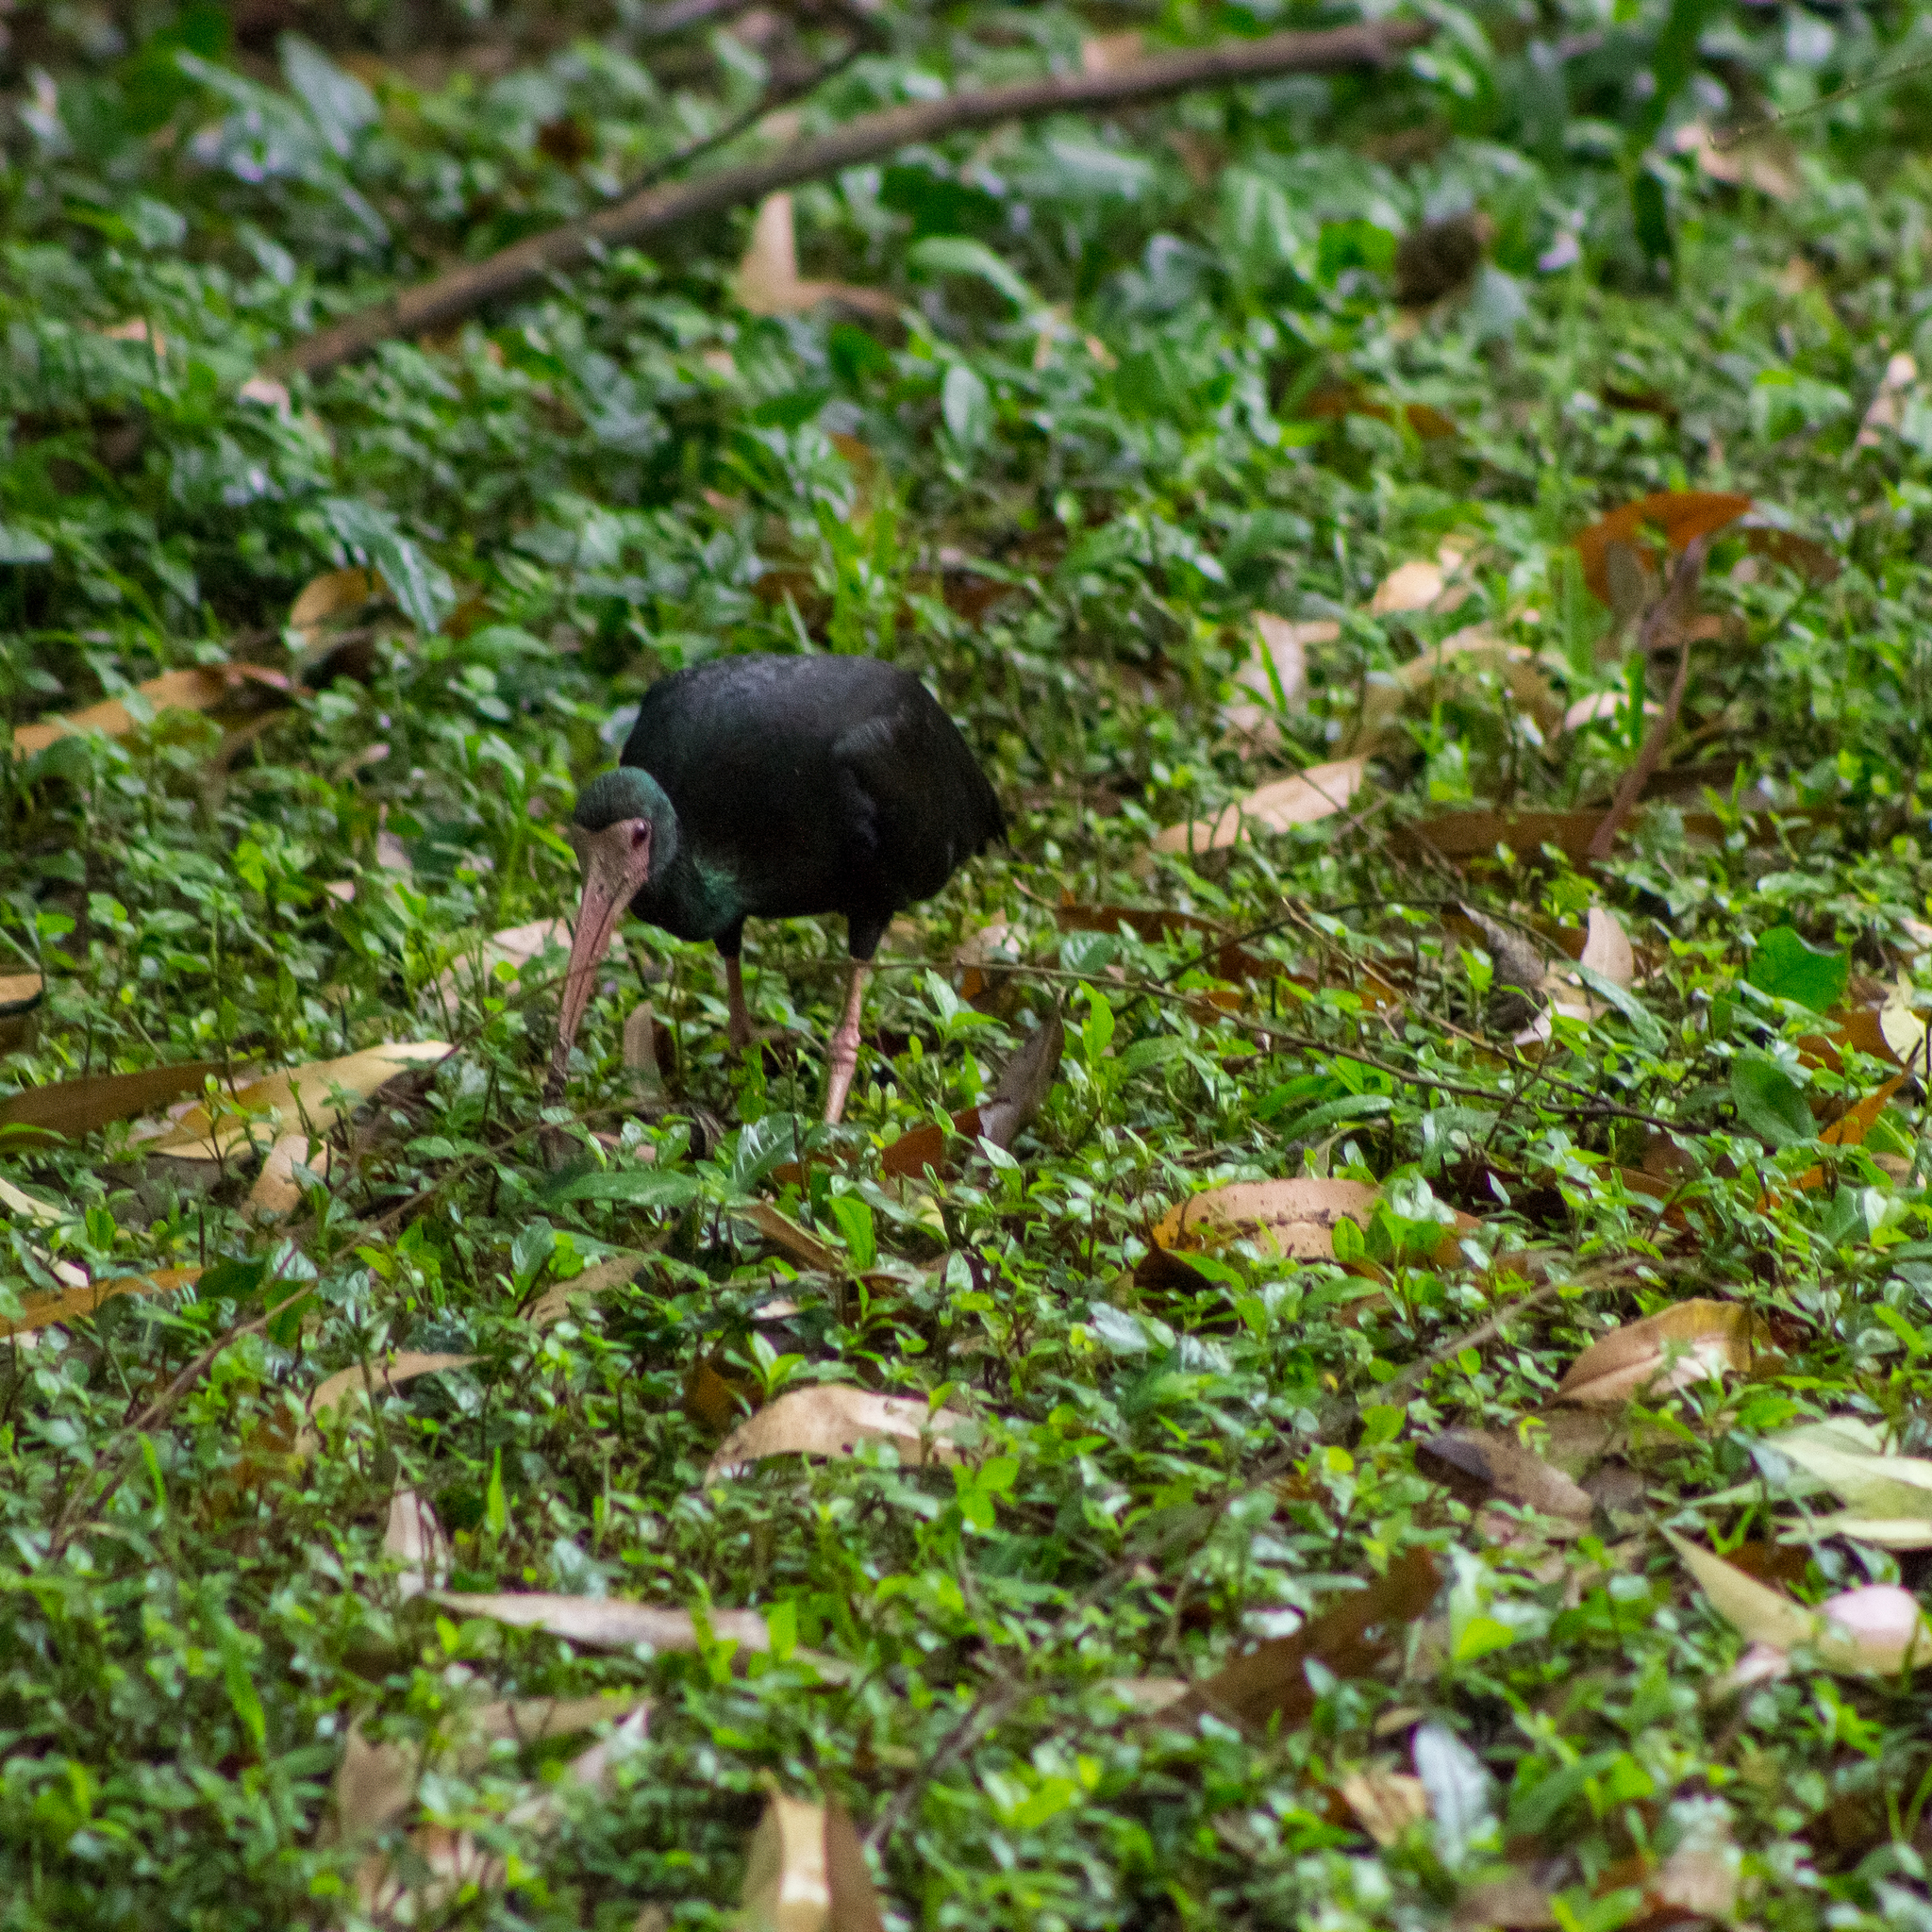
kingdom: Animalia
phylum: Chordata
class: Aves
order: Pelecaniformes
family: Threskiornithidae
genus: Phimosus
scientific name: Phimosus infuscatus
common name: Bare-faced ibis
